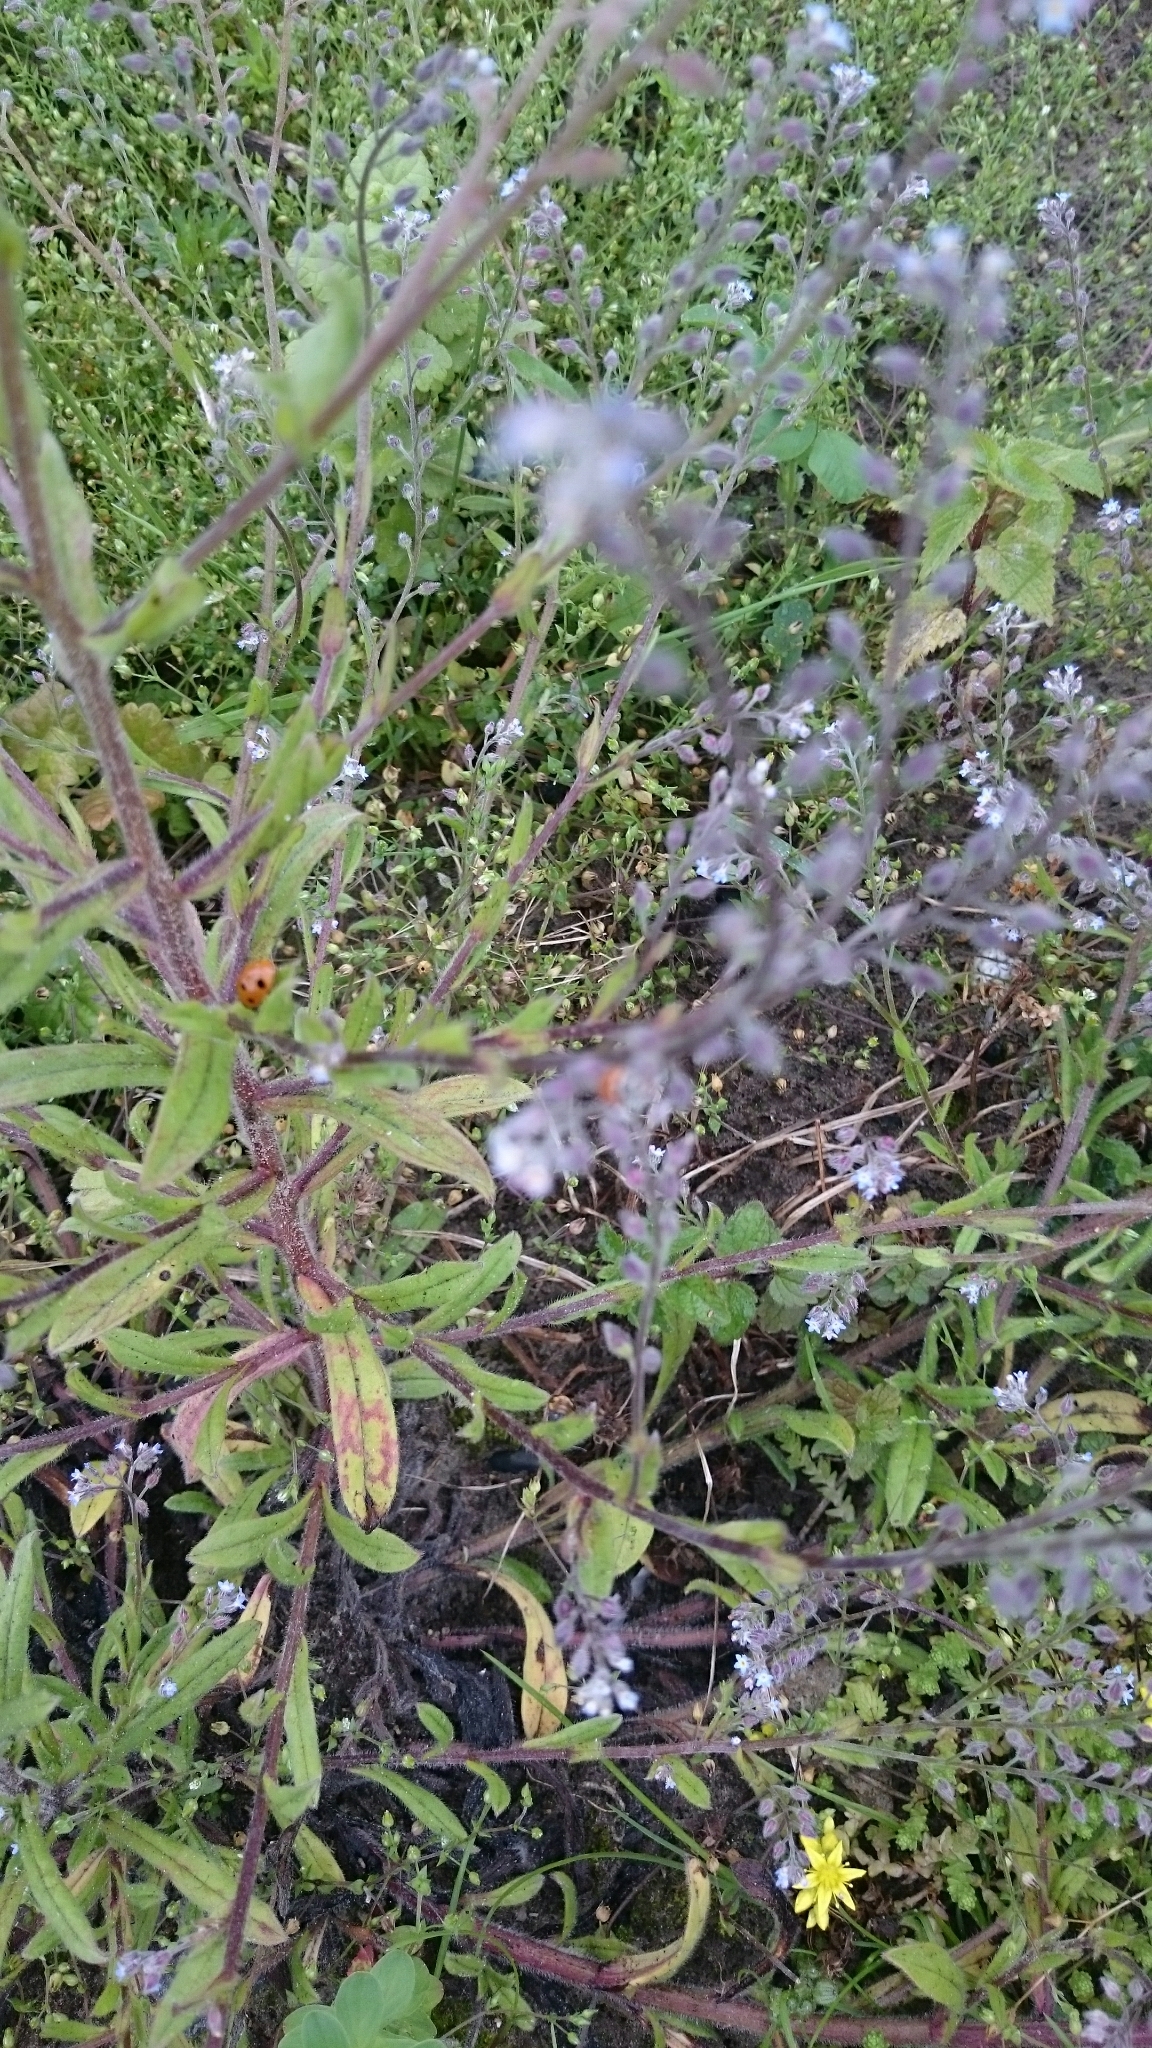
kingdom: Animalia
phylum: Arthropoda
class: Insecta
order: Coleoptera
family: Coccinellidae
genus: Hippodamia
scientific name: Hippodamia variegata
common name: Ladybird beetle
